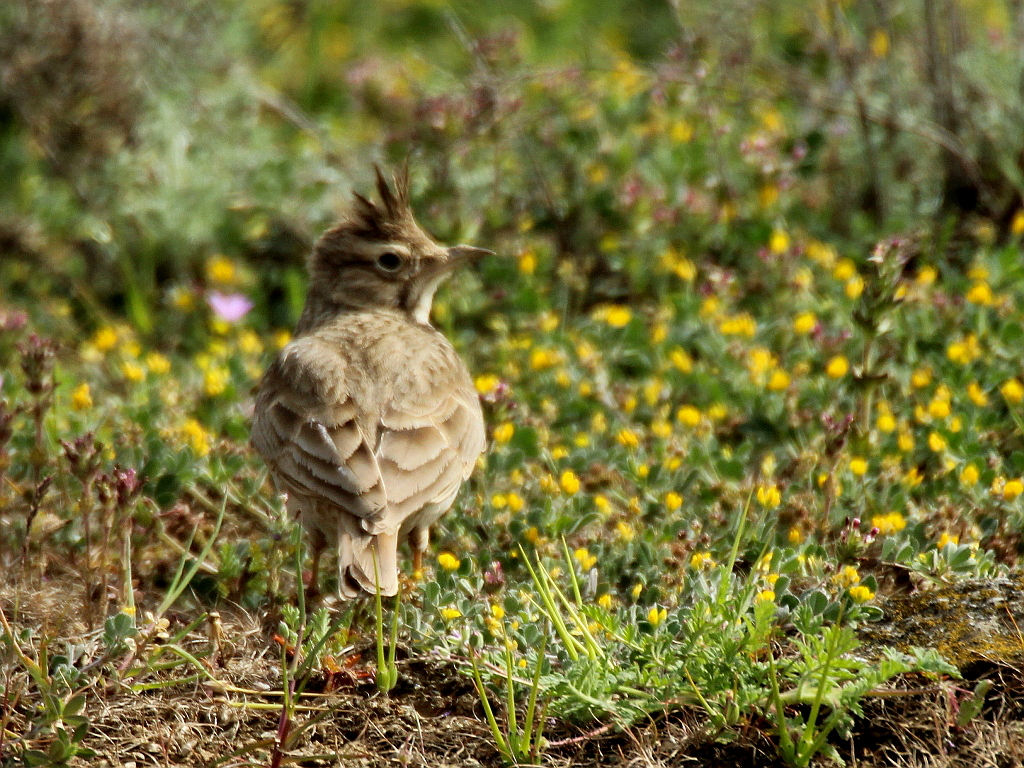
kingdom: Animalia
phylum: Chordata
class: Aves
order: Passeriformes
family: Alaudidae
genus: Galerida
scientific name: Galerida cristata
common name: Crested lark
